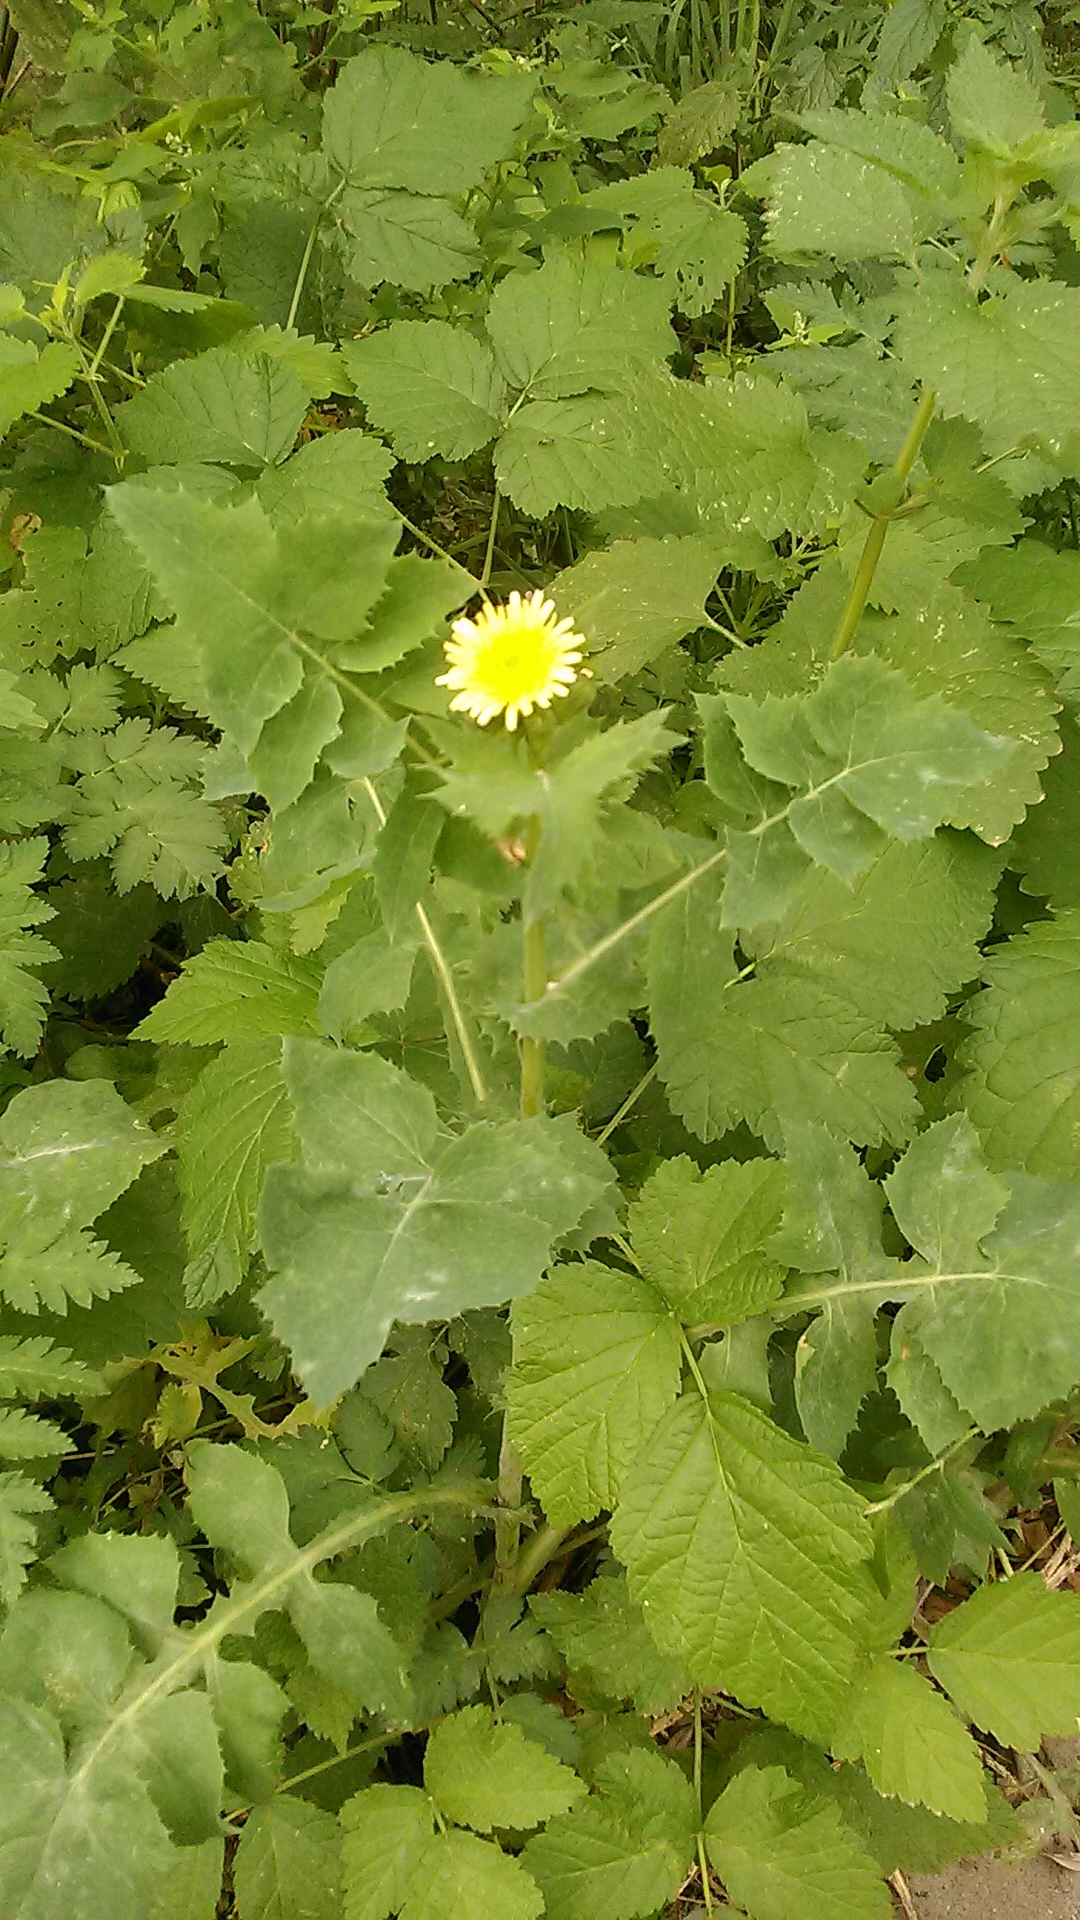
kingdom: Plantae
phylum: Tracheophyta
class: Magnoliopsida
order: Asterales
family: Asteraceae
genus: Sonchus
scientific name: Sonchus oleraceus
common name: Common sowthistle
